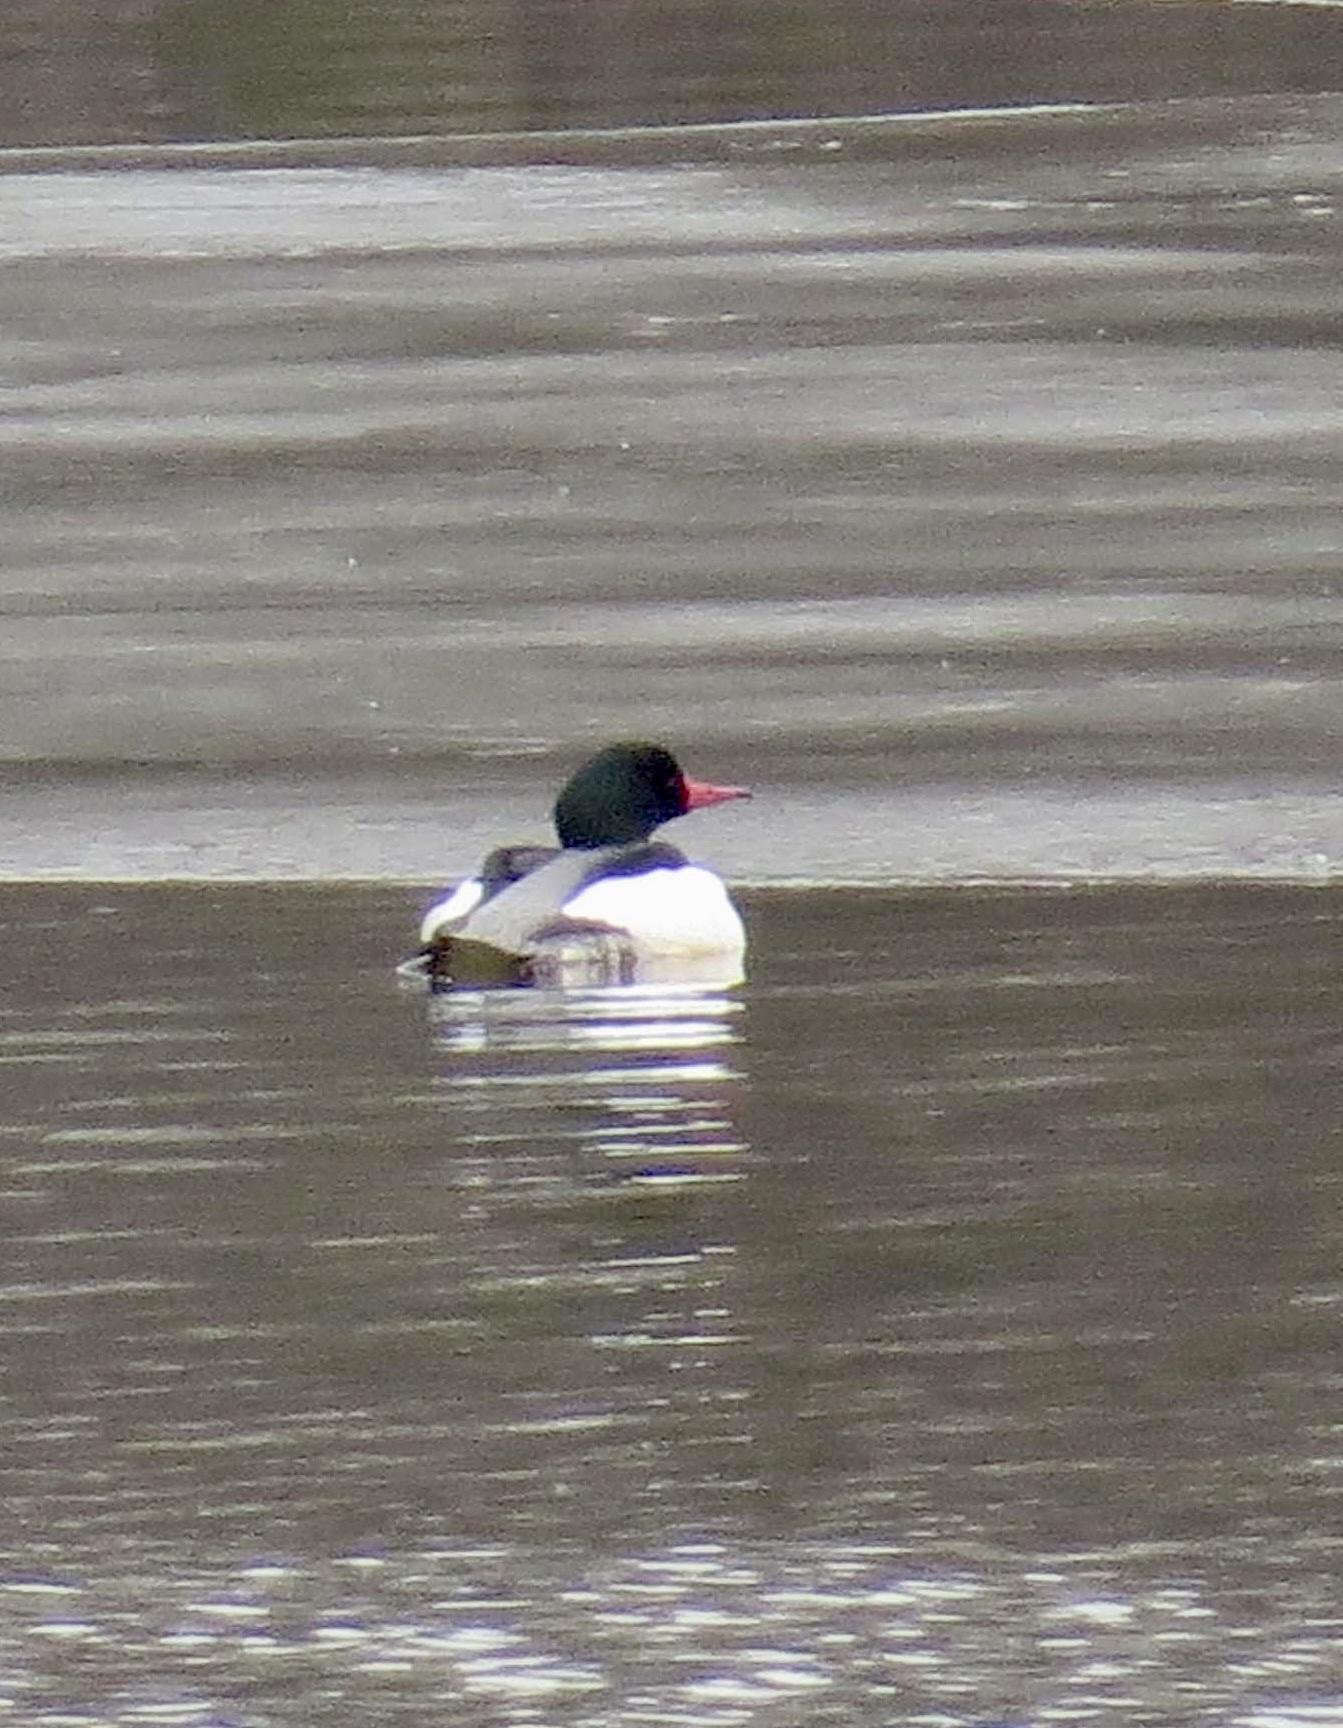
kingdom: Animalia
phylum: Chordata
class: Aves
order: Anseriformes
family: Anatidae
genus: Mergus
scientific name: Mergus merganser
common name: Common merganser
